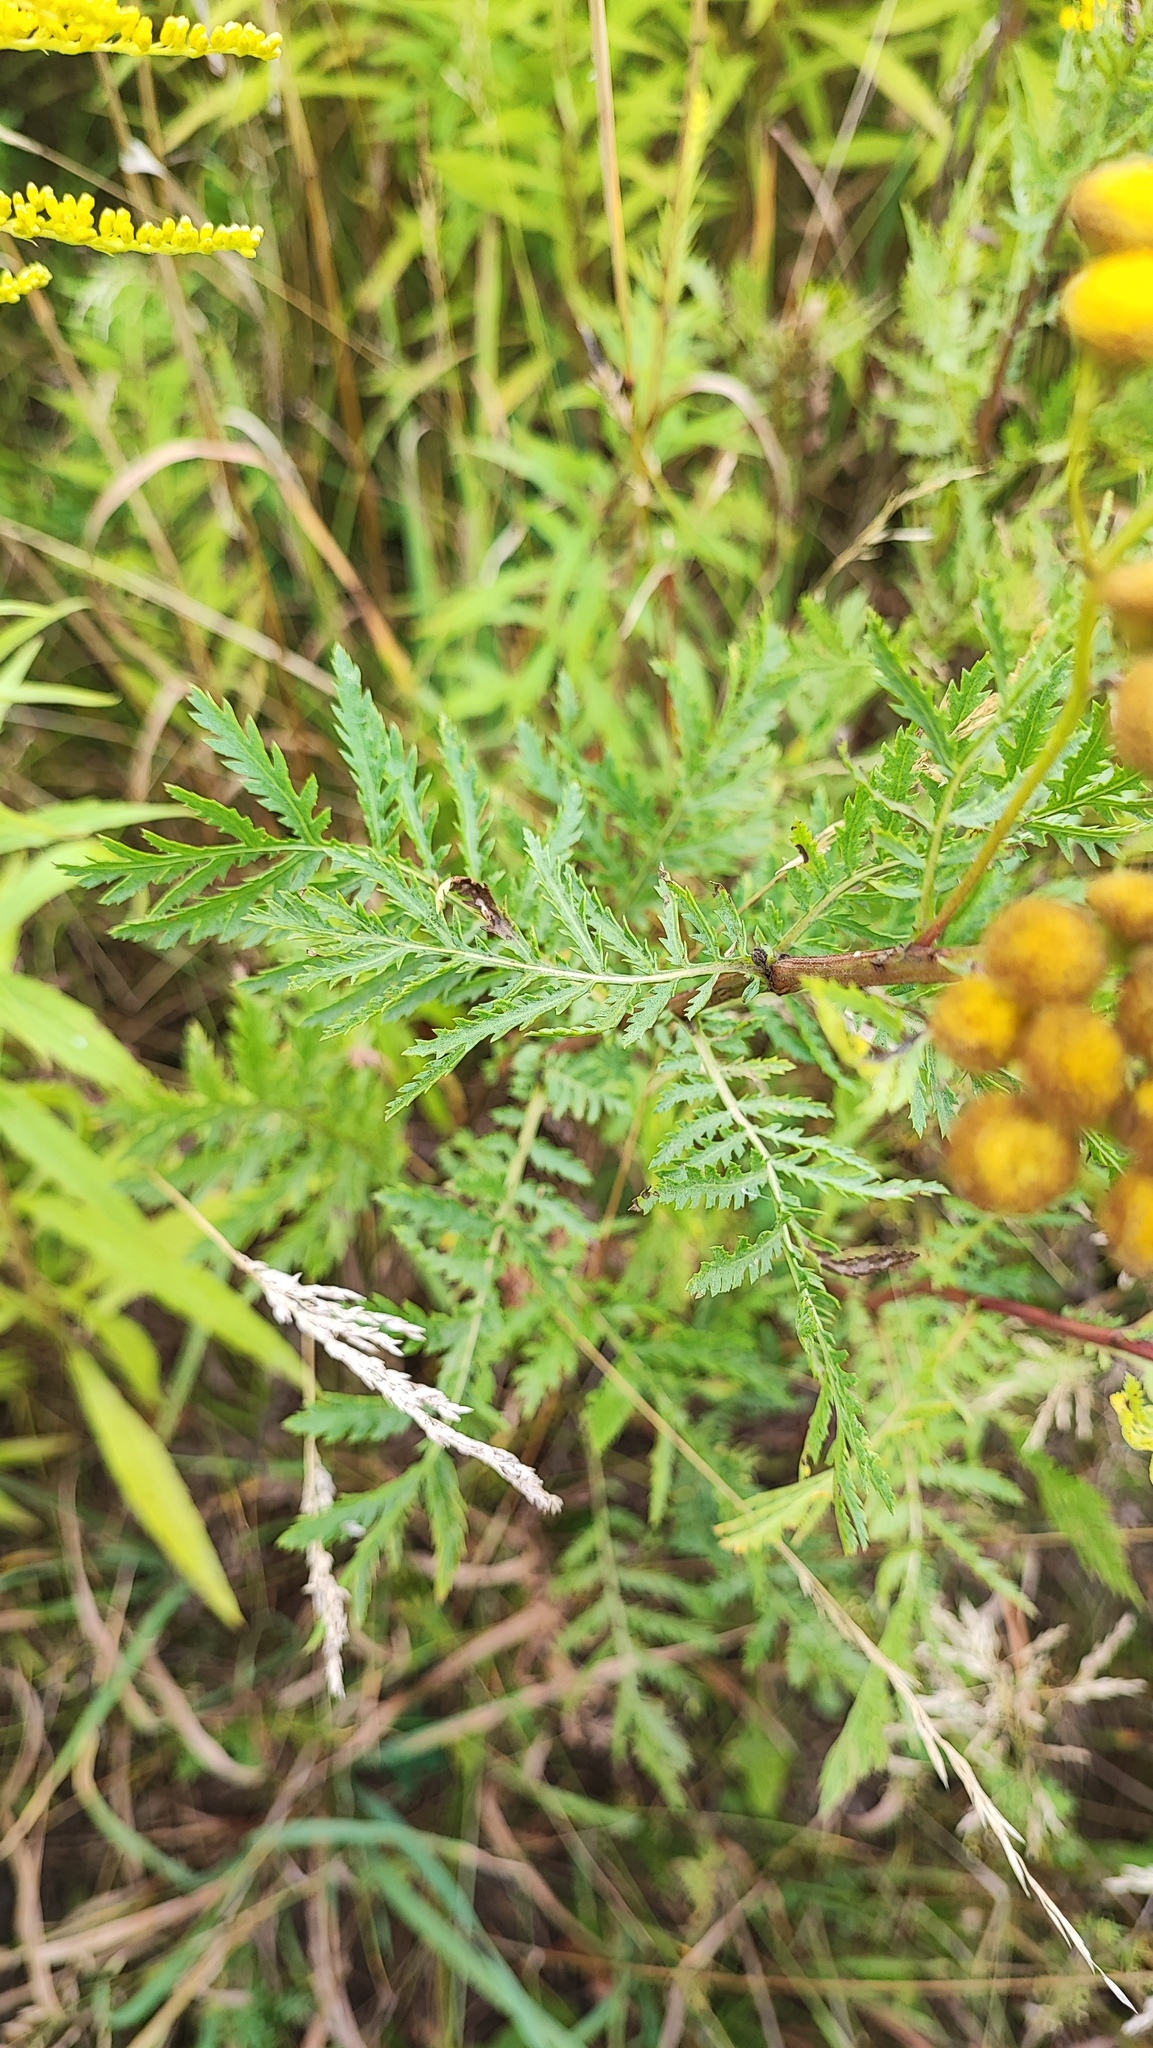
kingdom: Plantae
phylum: Tracheophyta
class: Magnoliopsida
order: Asterales
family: Asteraceae
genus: Tanacetum
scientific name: Tanacetum vulgare
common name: Common tansy
